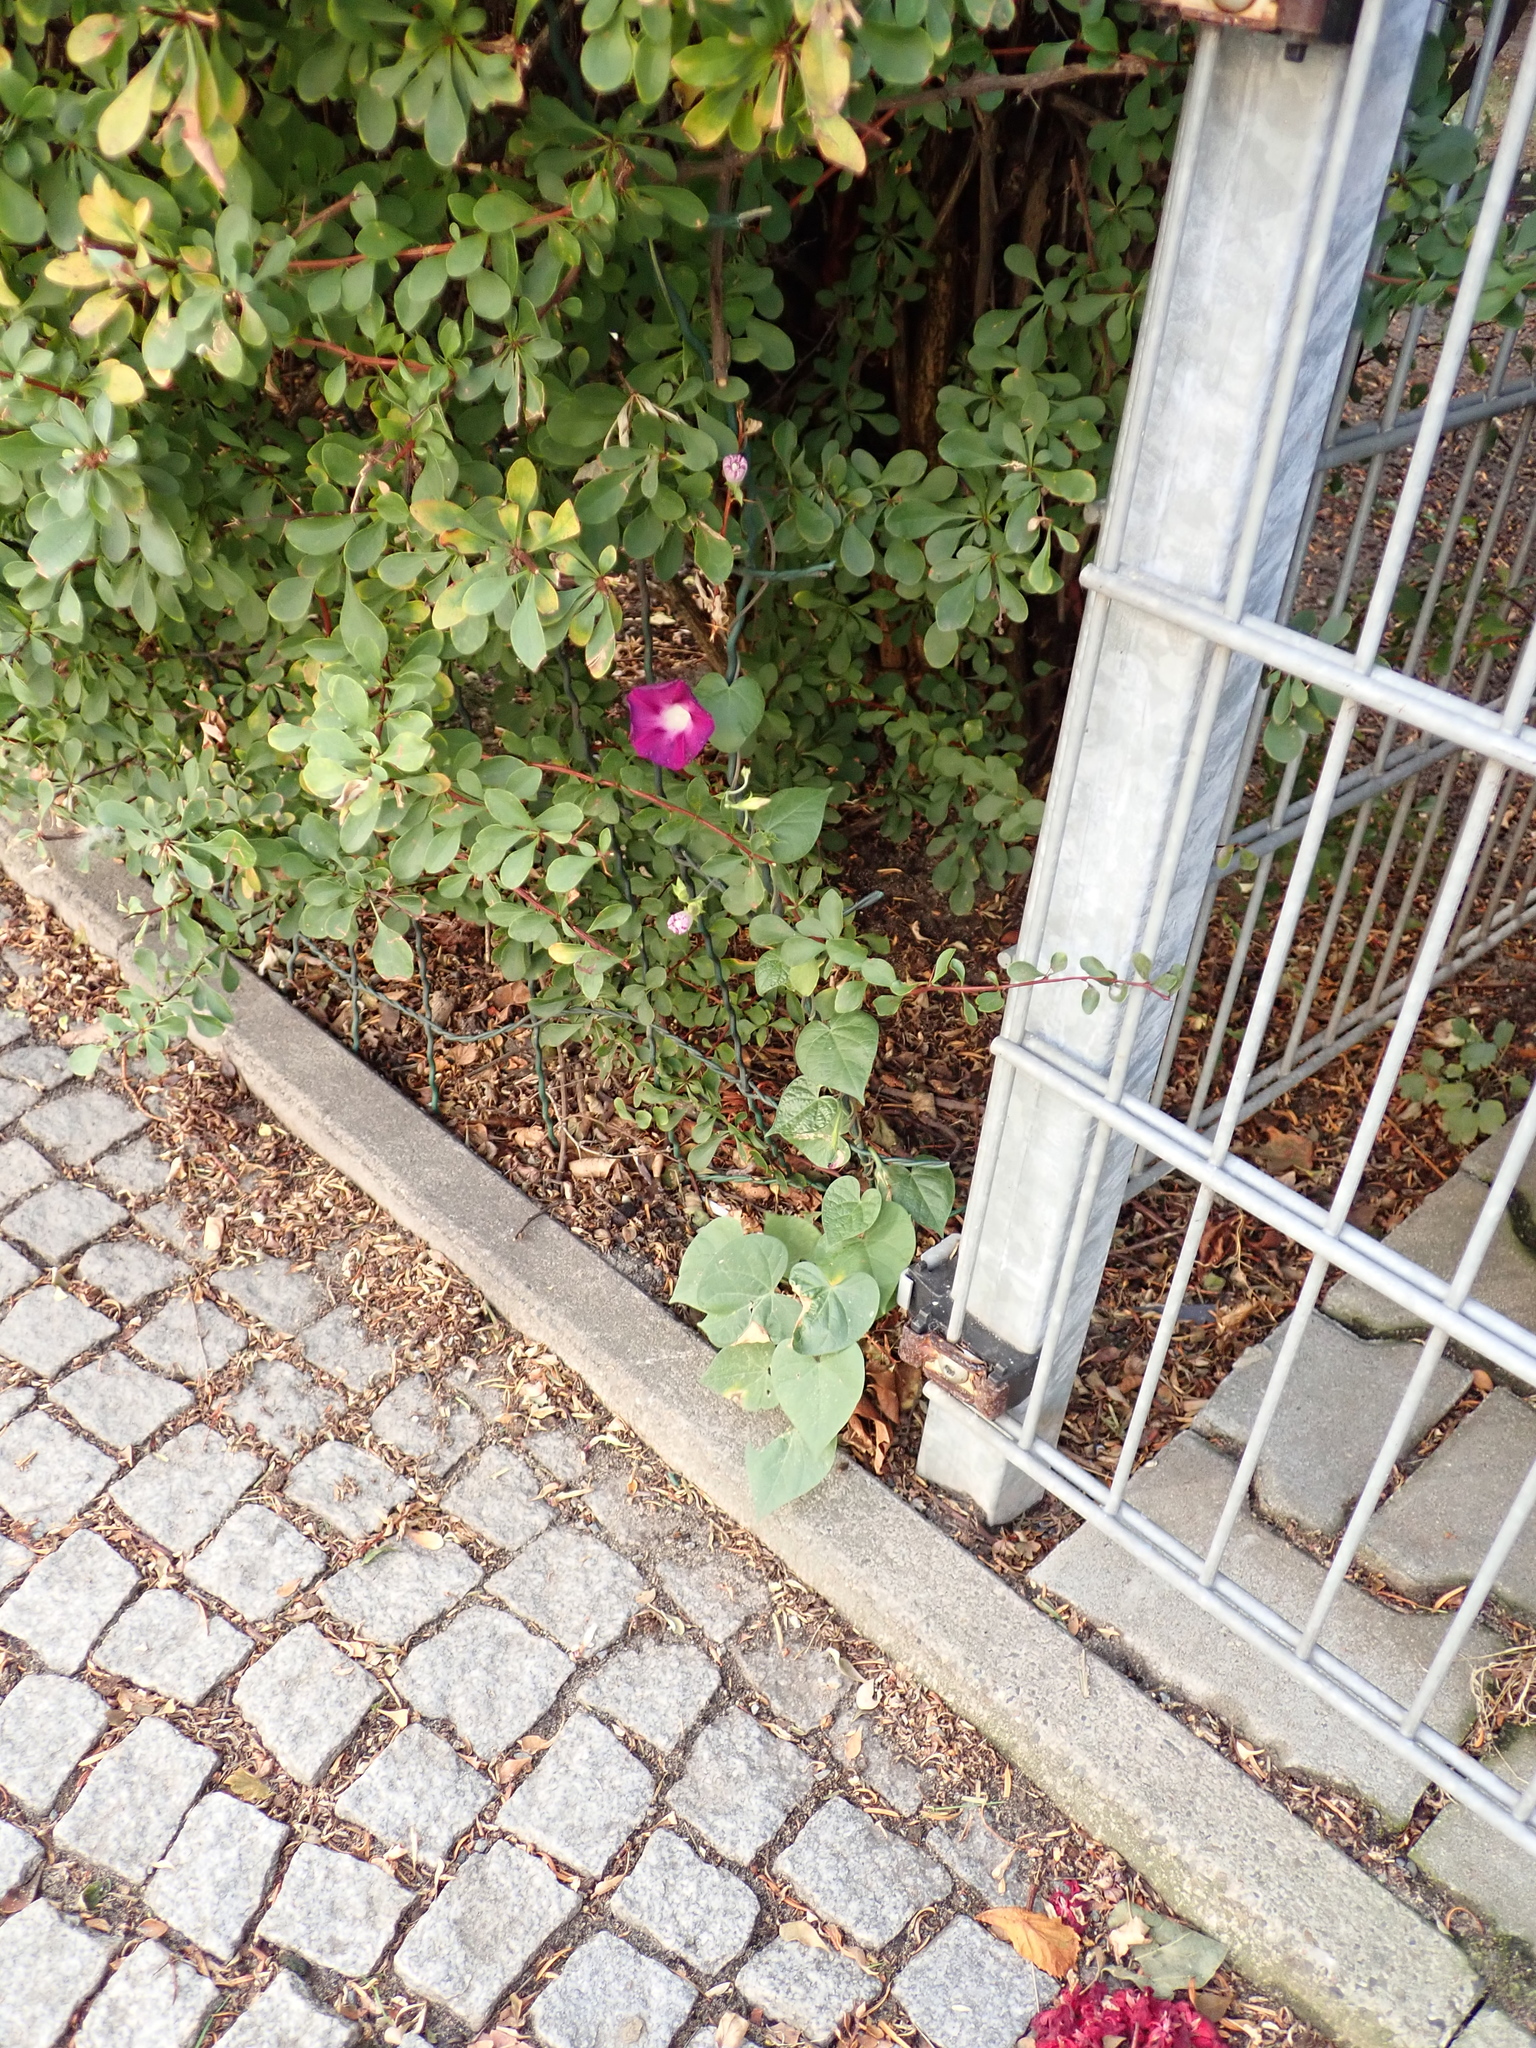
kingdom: Plantae
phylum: Tracheophyta
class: Magnoliopsida
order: Solanales
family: Convolvulaceae
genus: Ipomoea
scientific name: Ipomoea purpurea
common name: Common morning-glory
